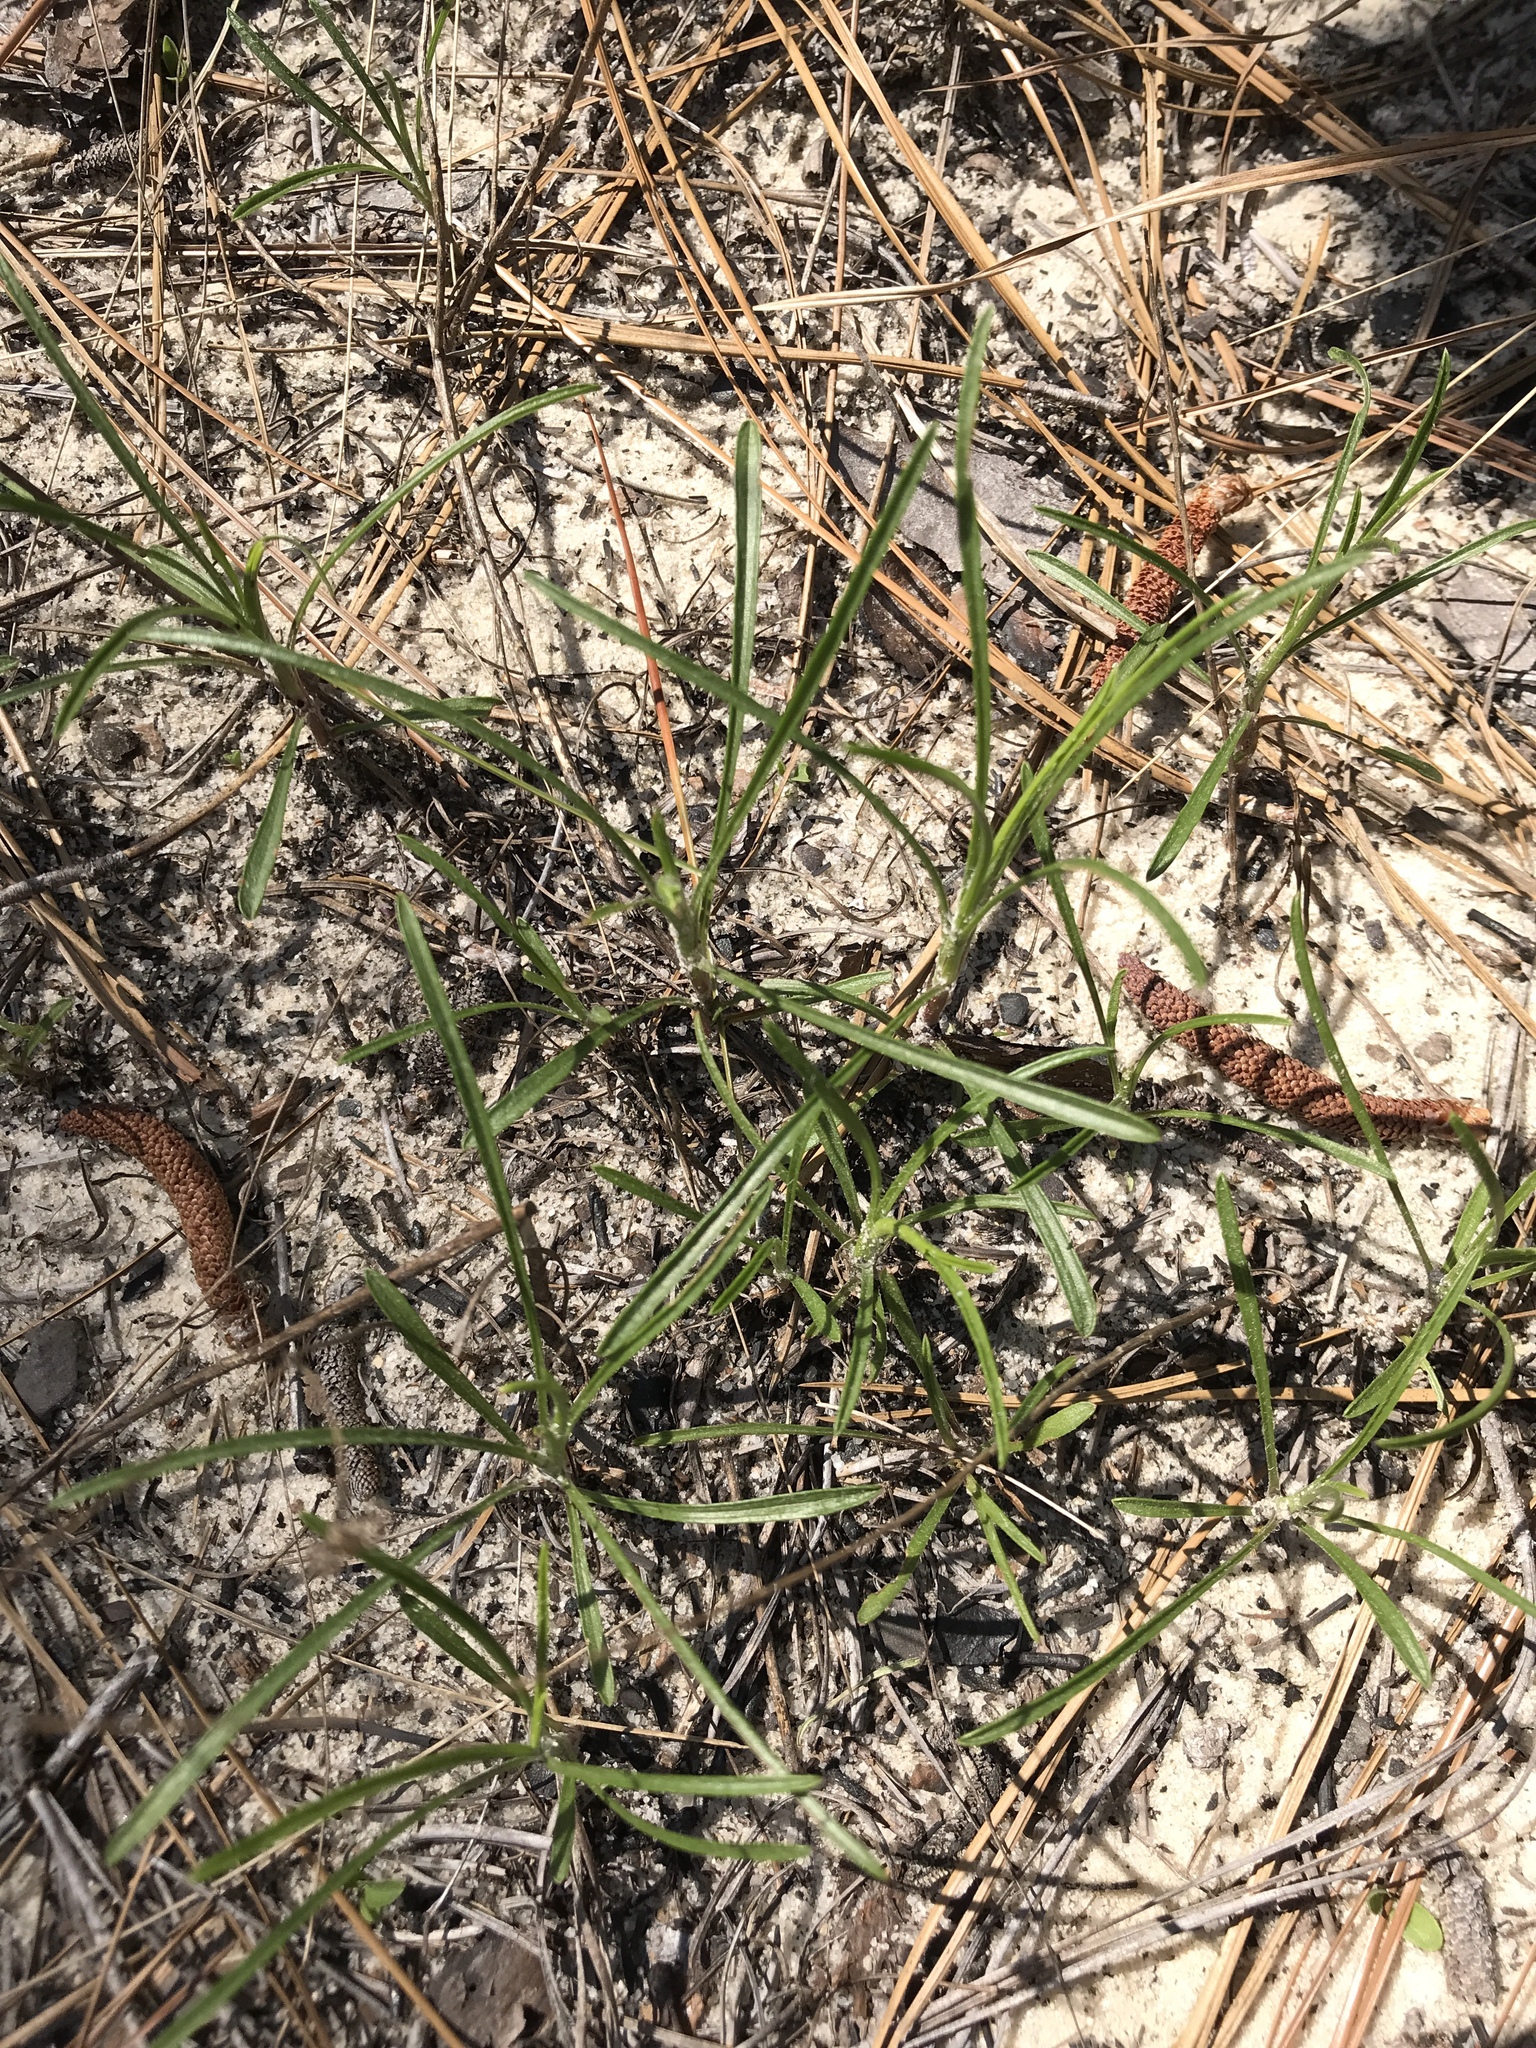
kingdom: Plantae
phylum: Tracheophyta
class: Magnoliopsida
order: Asterales
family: Asteraceae
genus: Pityopsis
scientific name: Pityopsis pinifolia
